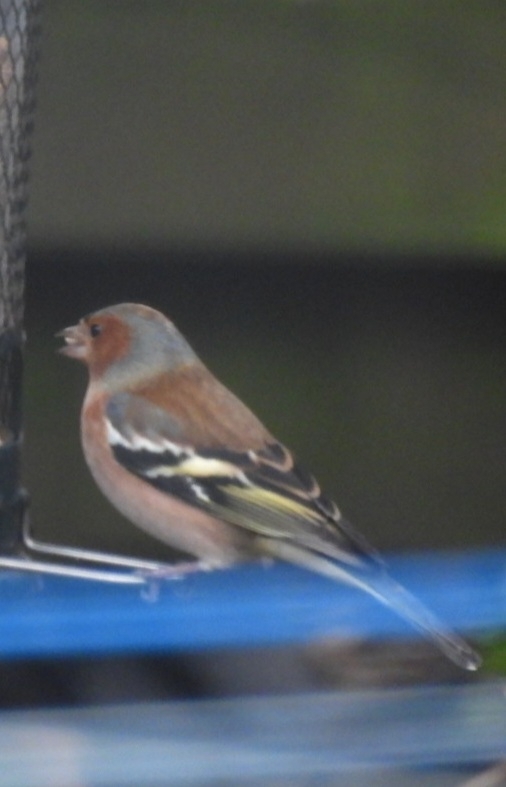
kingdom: Animalia
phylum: Chordata
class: Aves
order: Passeriformes
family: Fringillidae
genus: Fringilla
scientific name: Fringilla coelebs
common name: Common chaffinch
